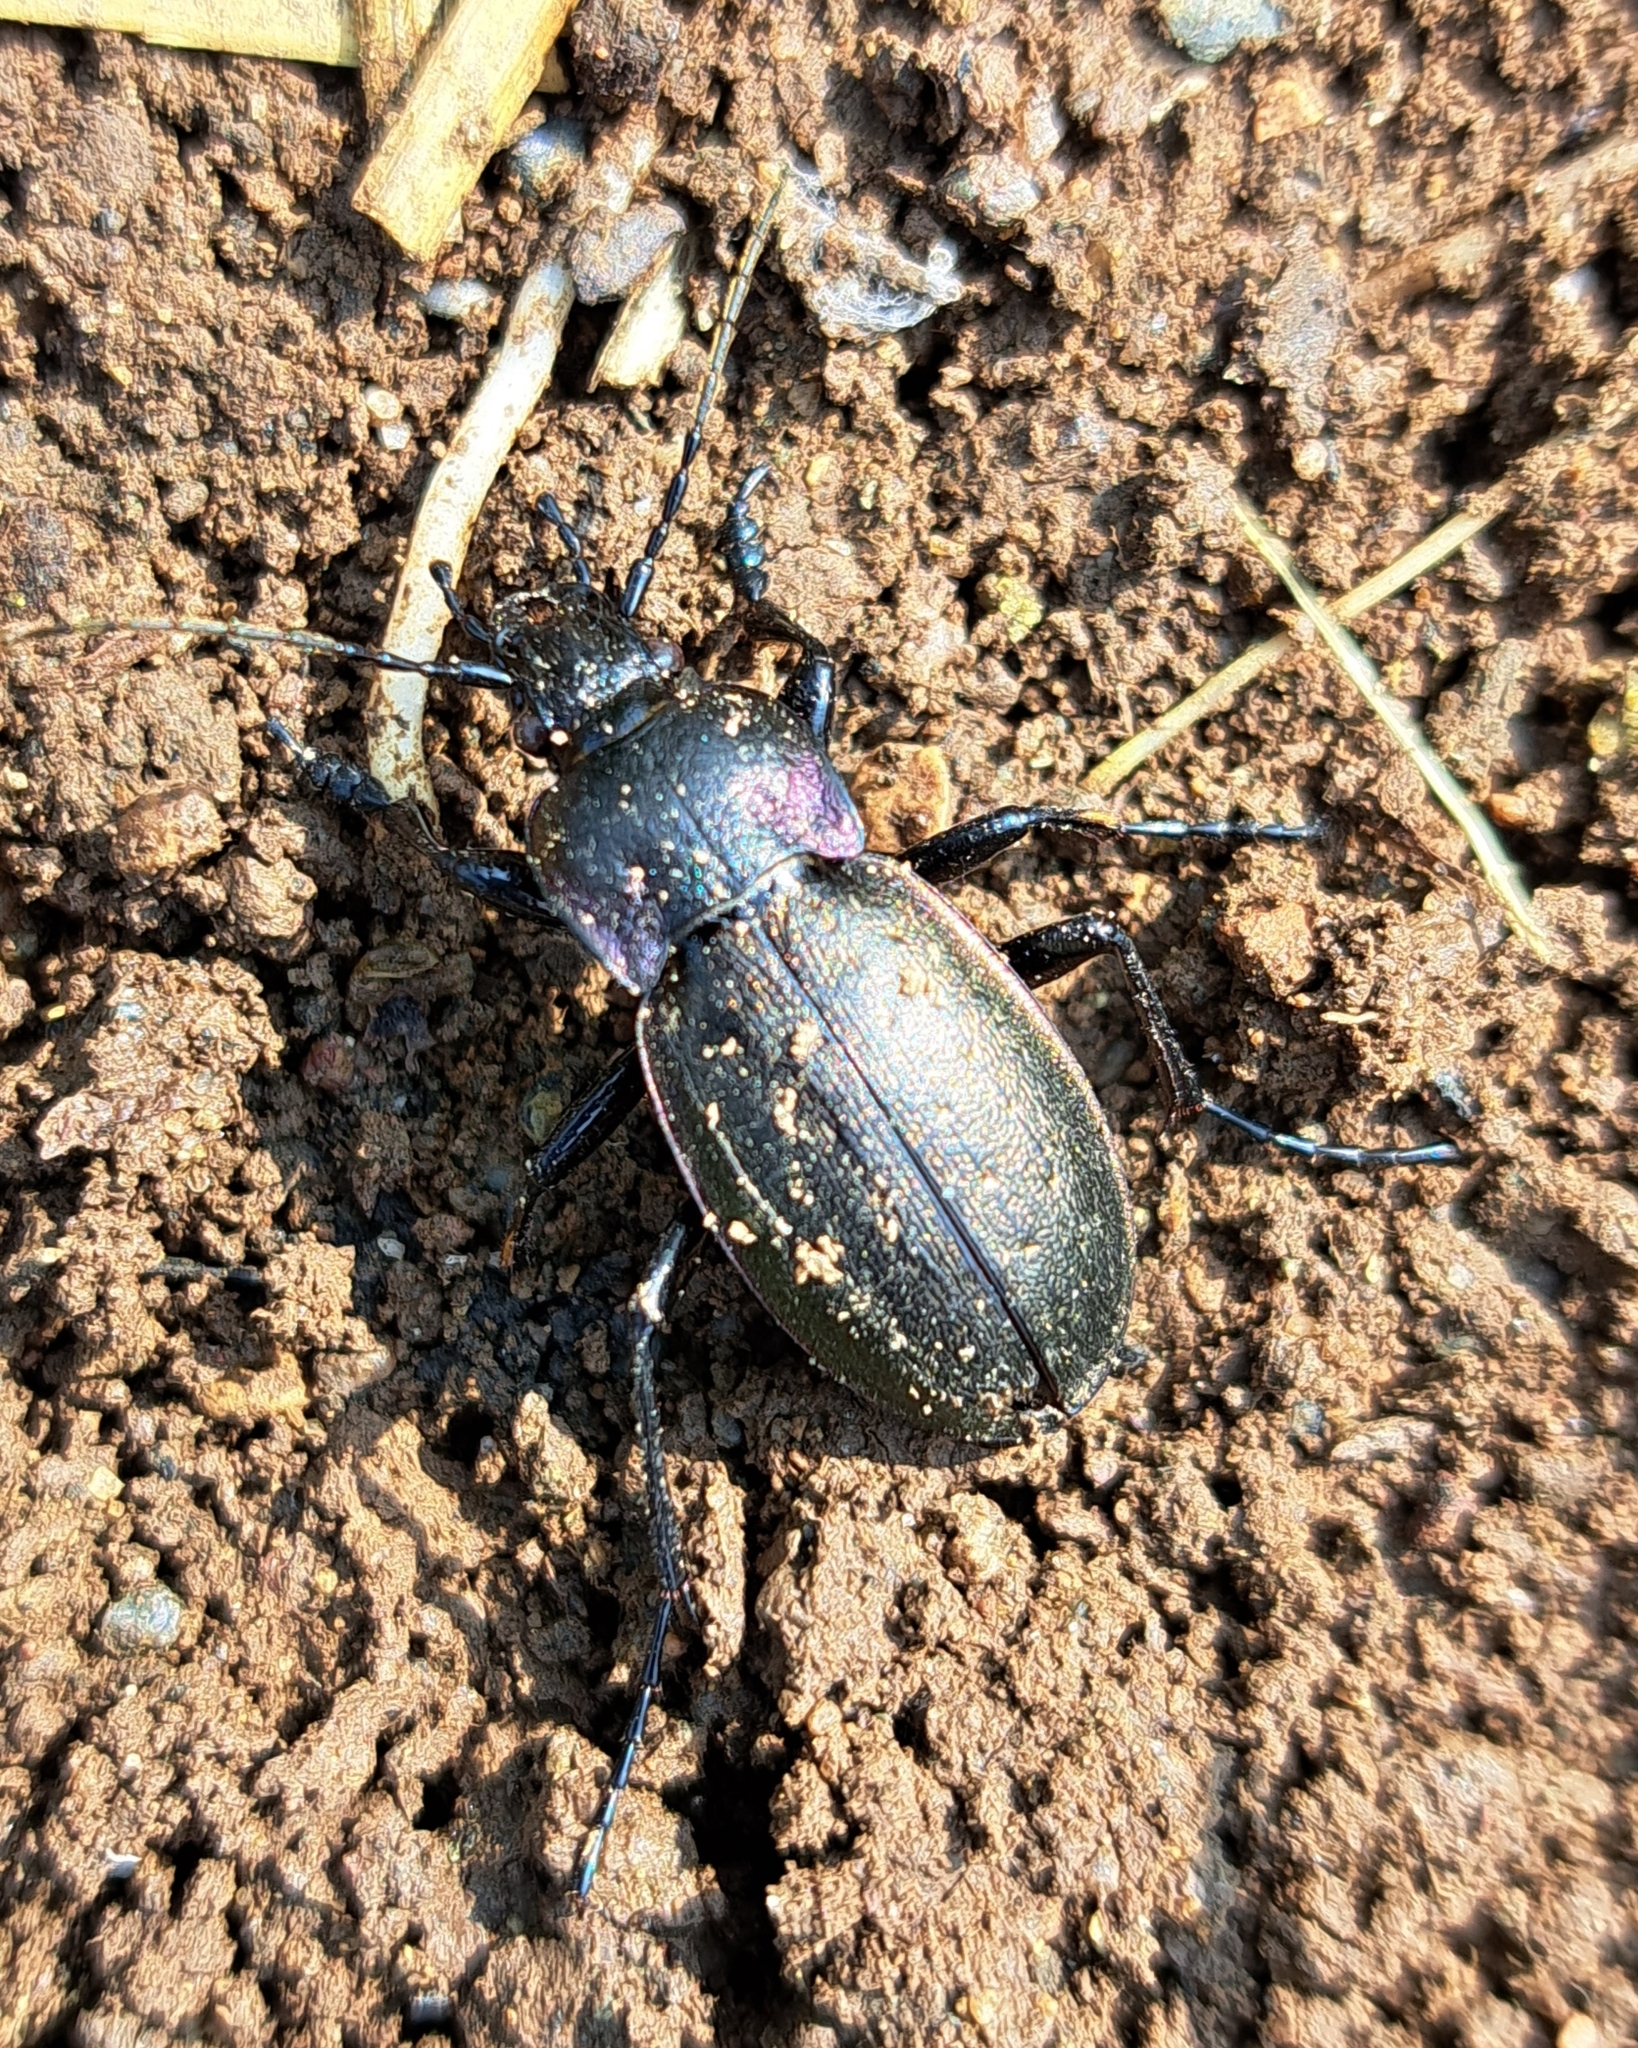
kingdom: Animalia
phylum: Arthropoda
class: Insecta
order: Coleoptera
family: Carabidae
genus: Carabus
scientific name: Carabus nemoralis
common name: European ground beetle
